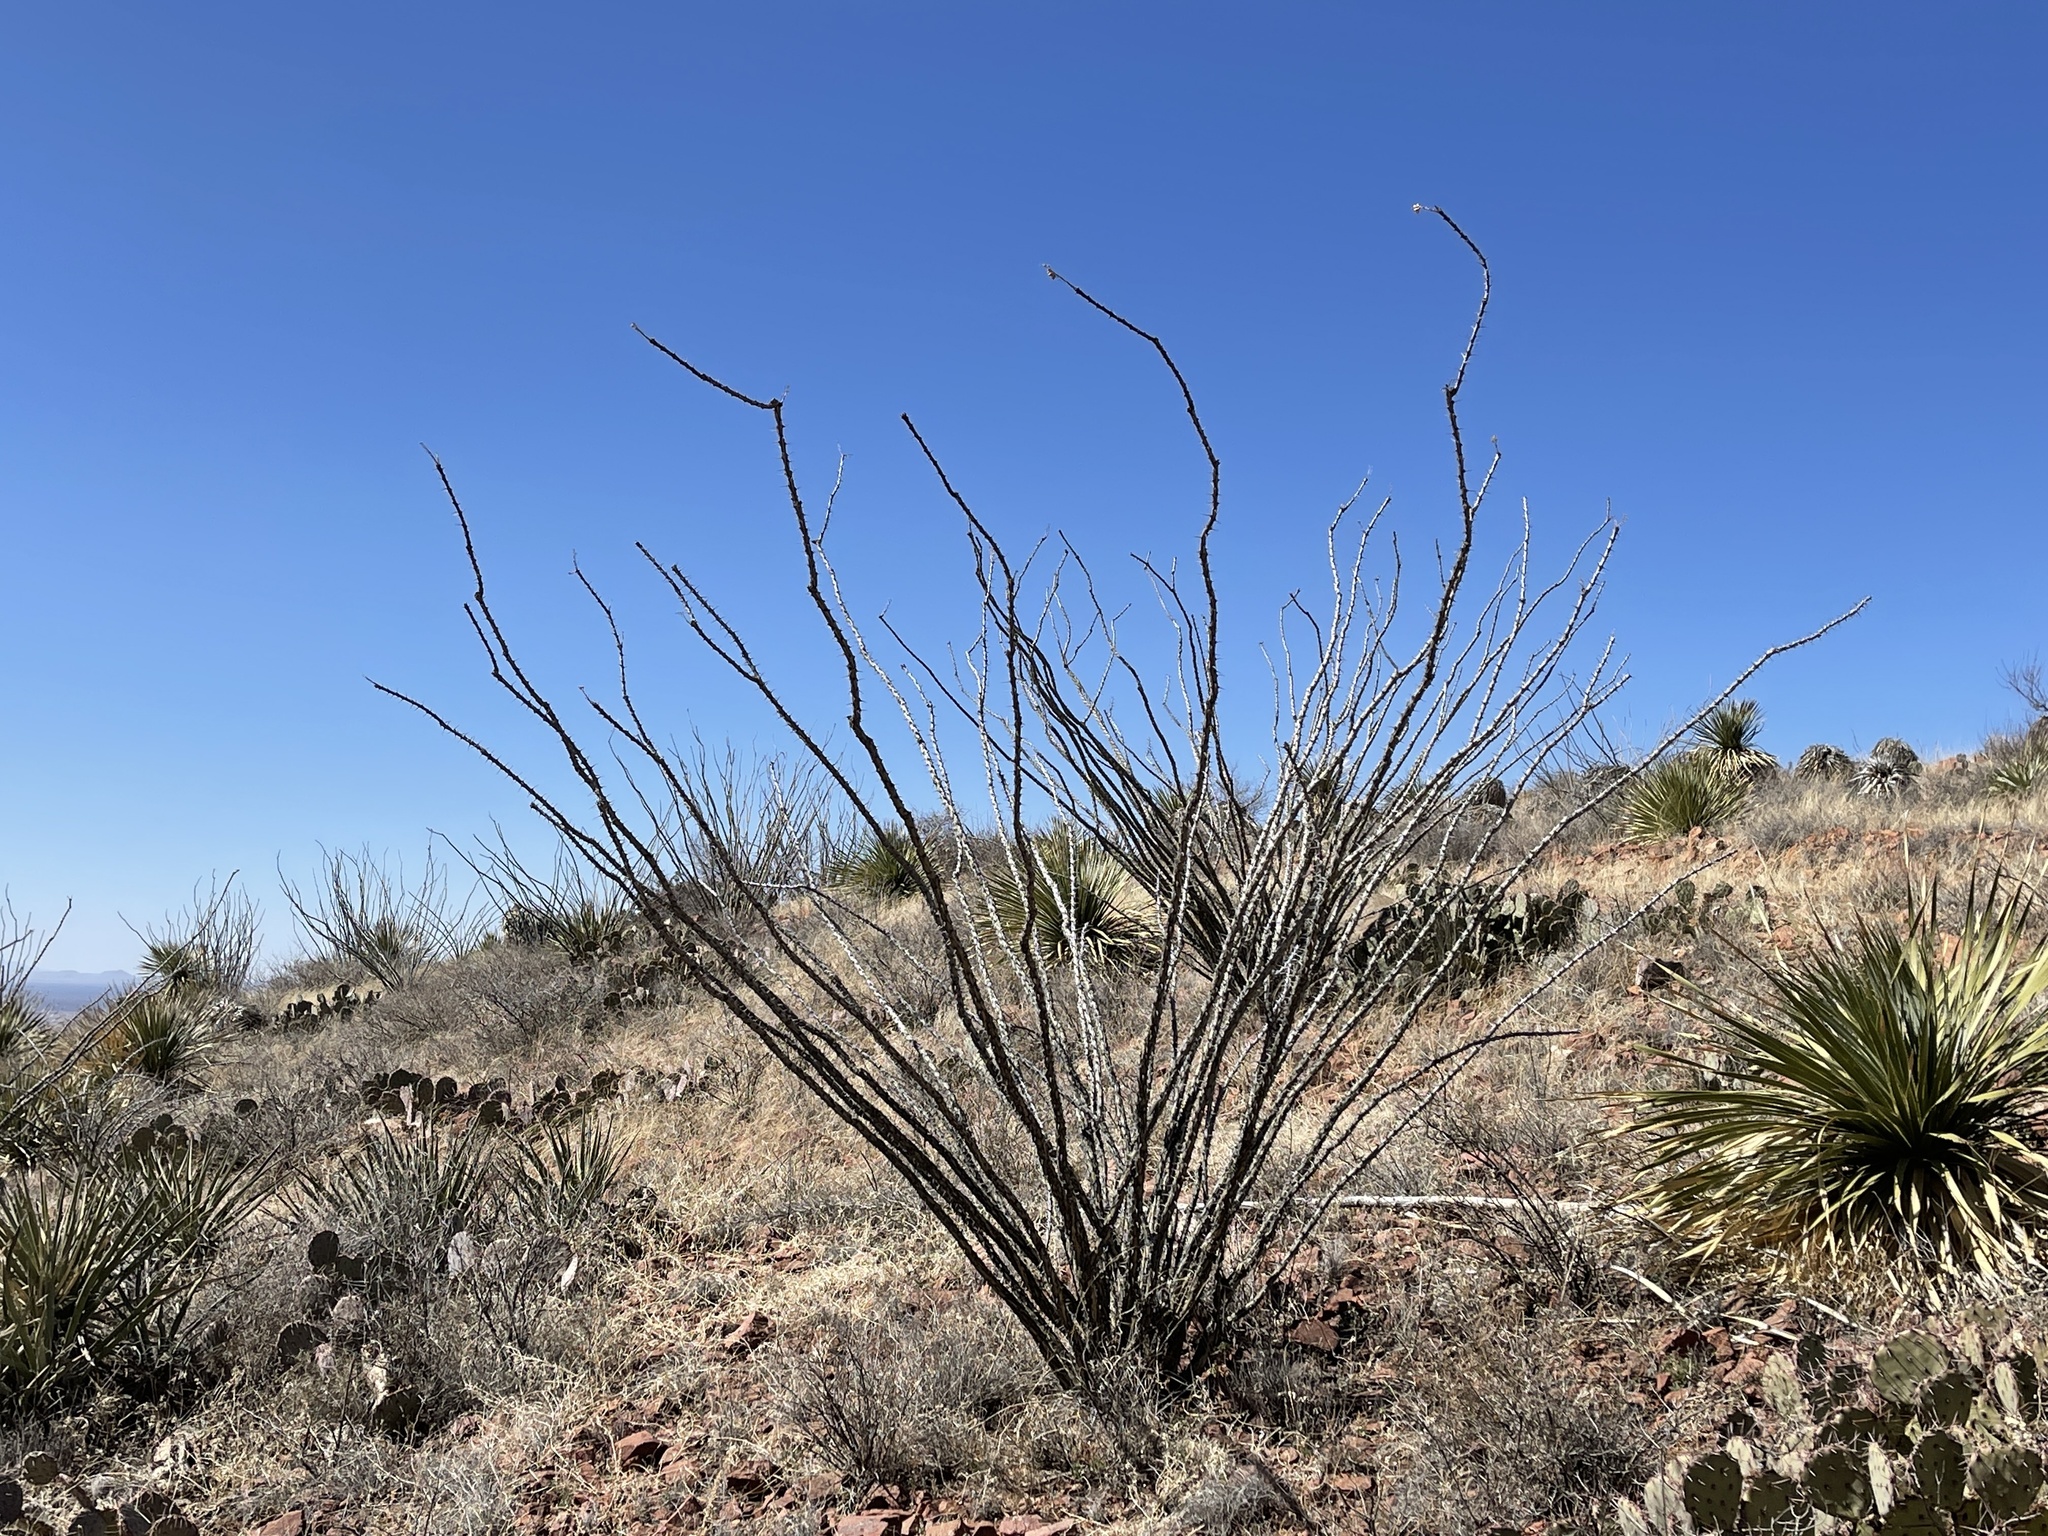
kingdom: Plantae
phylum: Tracheophyta
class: Magnoliopsida
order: Ericales
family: Fouquieriaceae
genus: Fouquieria
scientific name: Fouquieria splendens
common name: Vine-cactus
